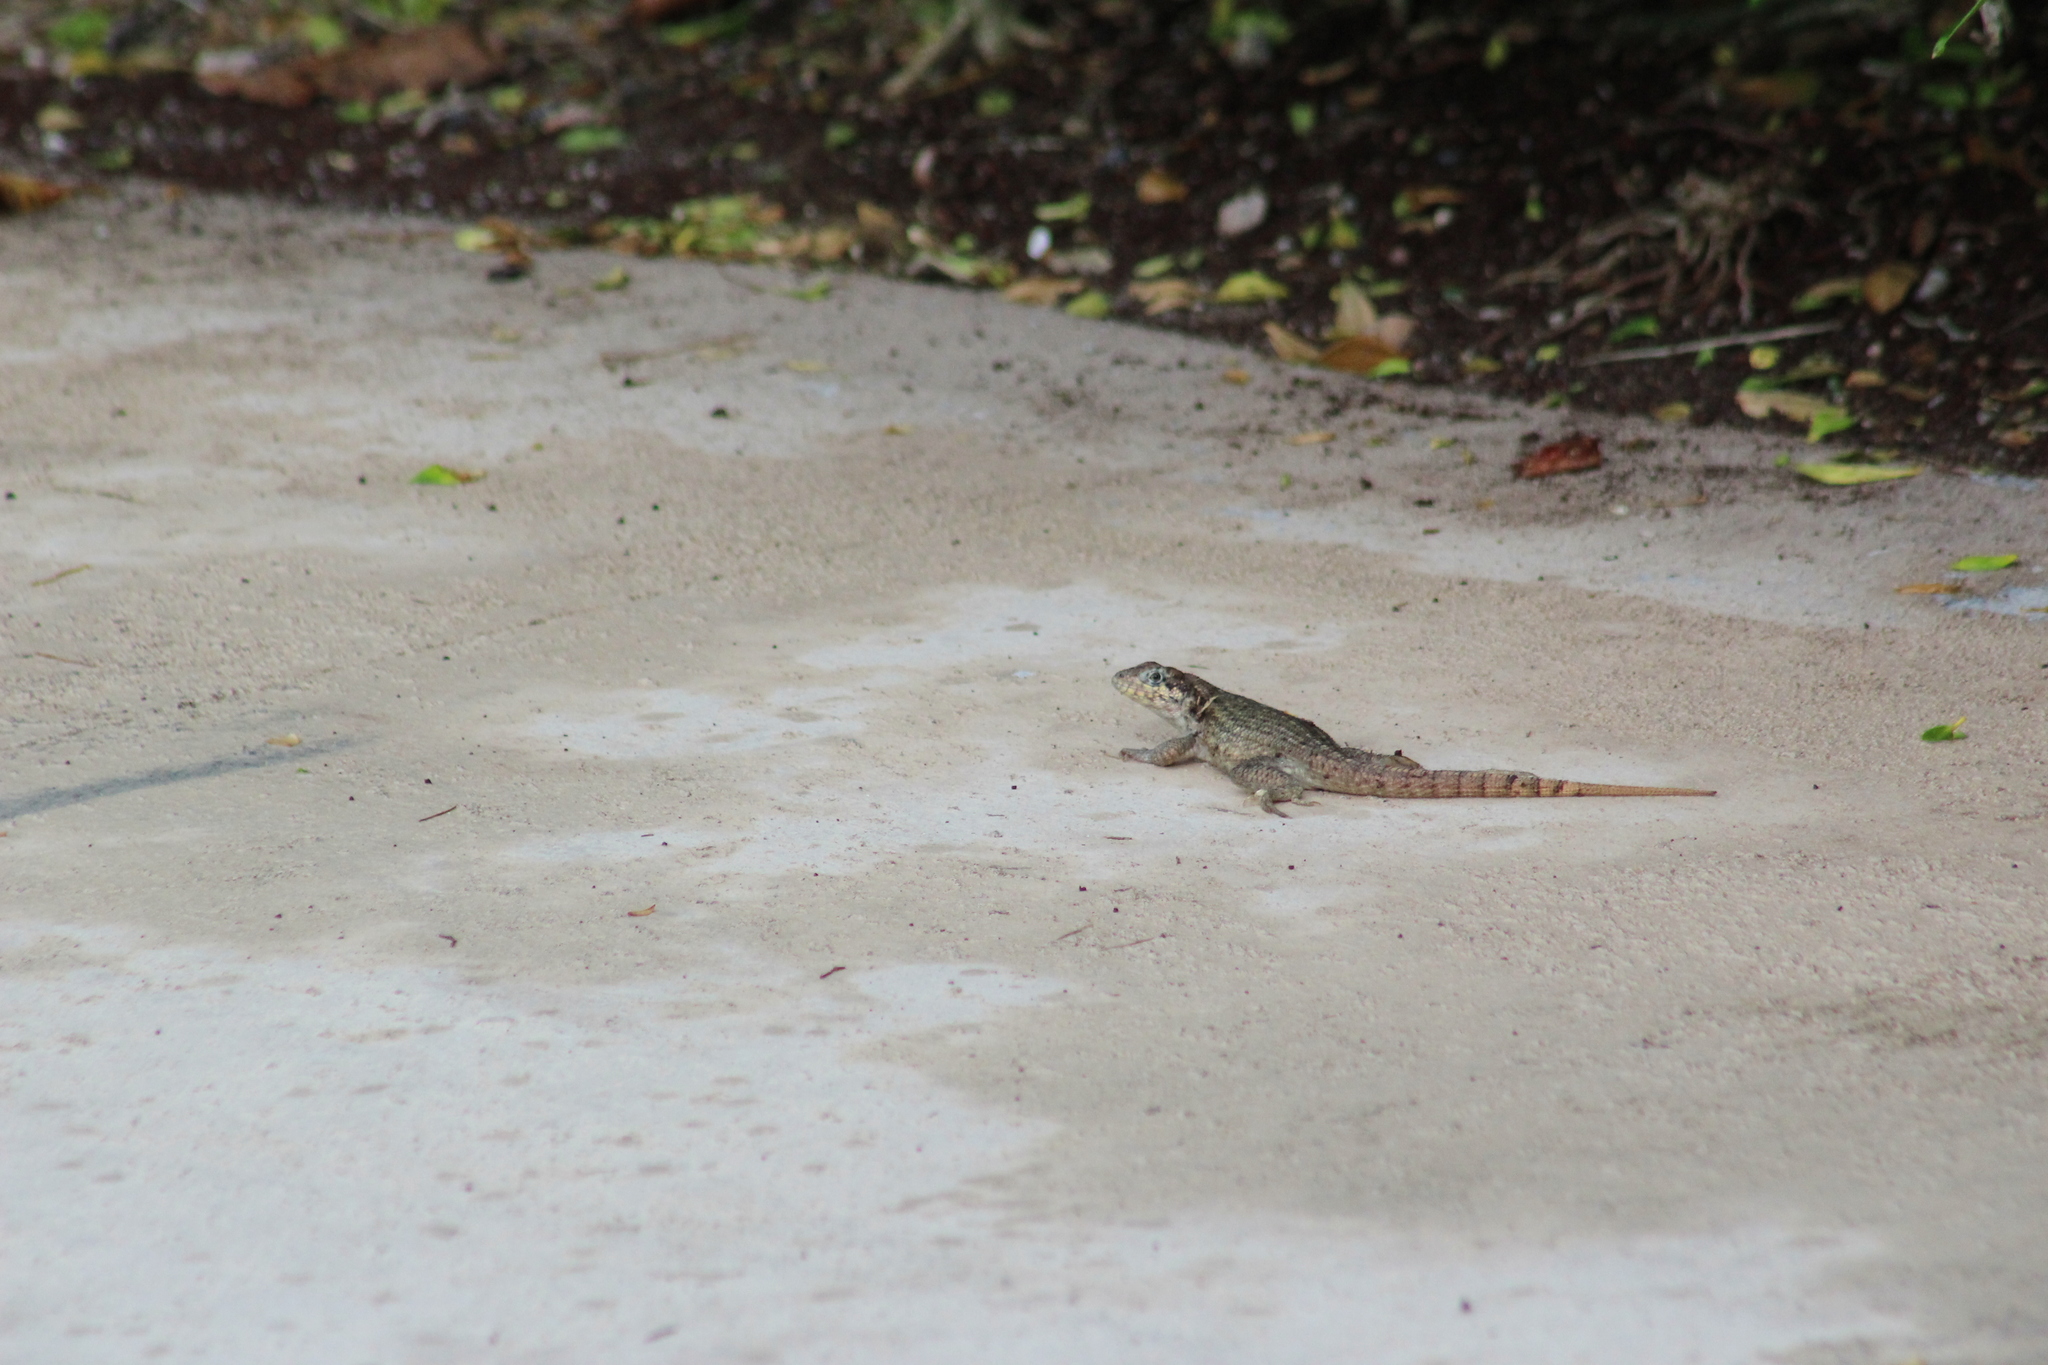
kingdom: Animalia
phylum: Chordata
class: Squamata
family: Leiocephalidae
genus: Leiocephalus
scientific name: Leiocephalus carinatus
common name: Northern curly-tailed lizard
